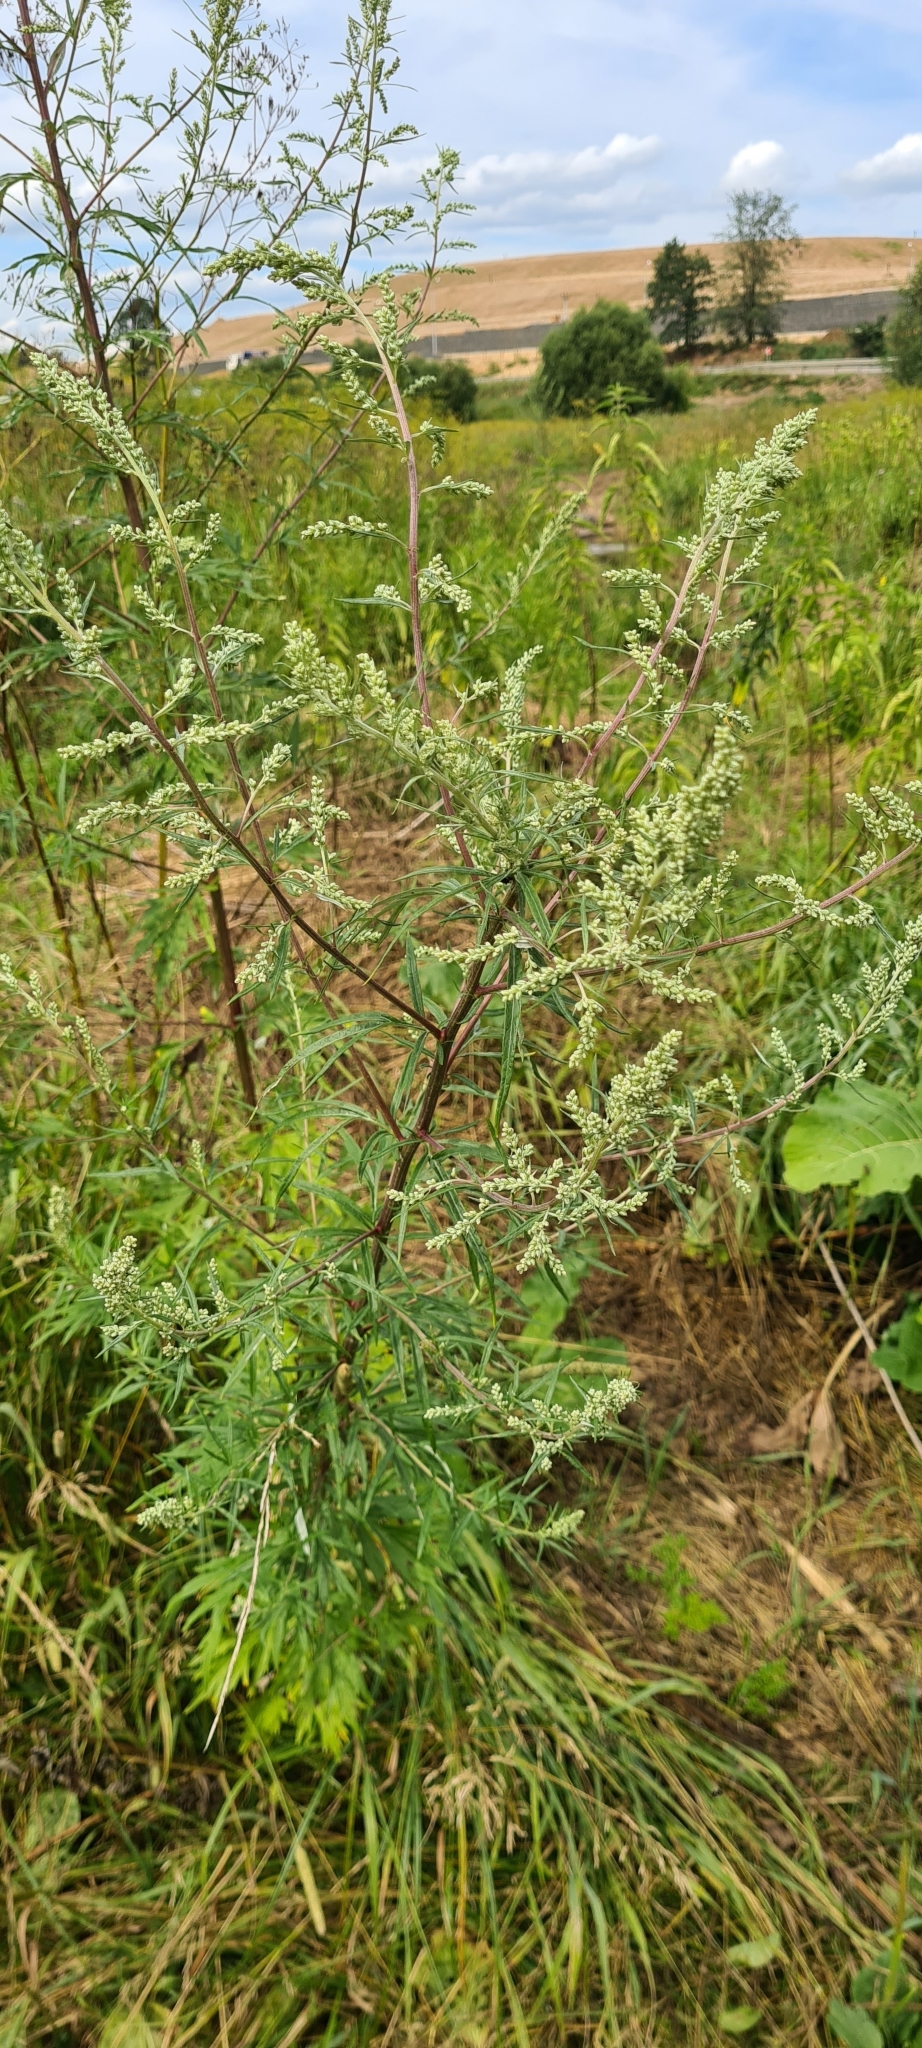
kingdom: Plantae
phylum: Tracheophyta
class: Magnoliopsida
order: Asterales
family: Asteraceae
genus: Artemisia
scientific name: Artemisia vulgaris
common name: Mugwort
